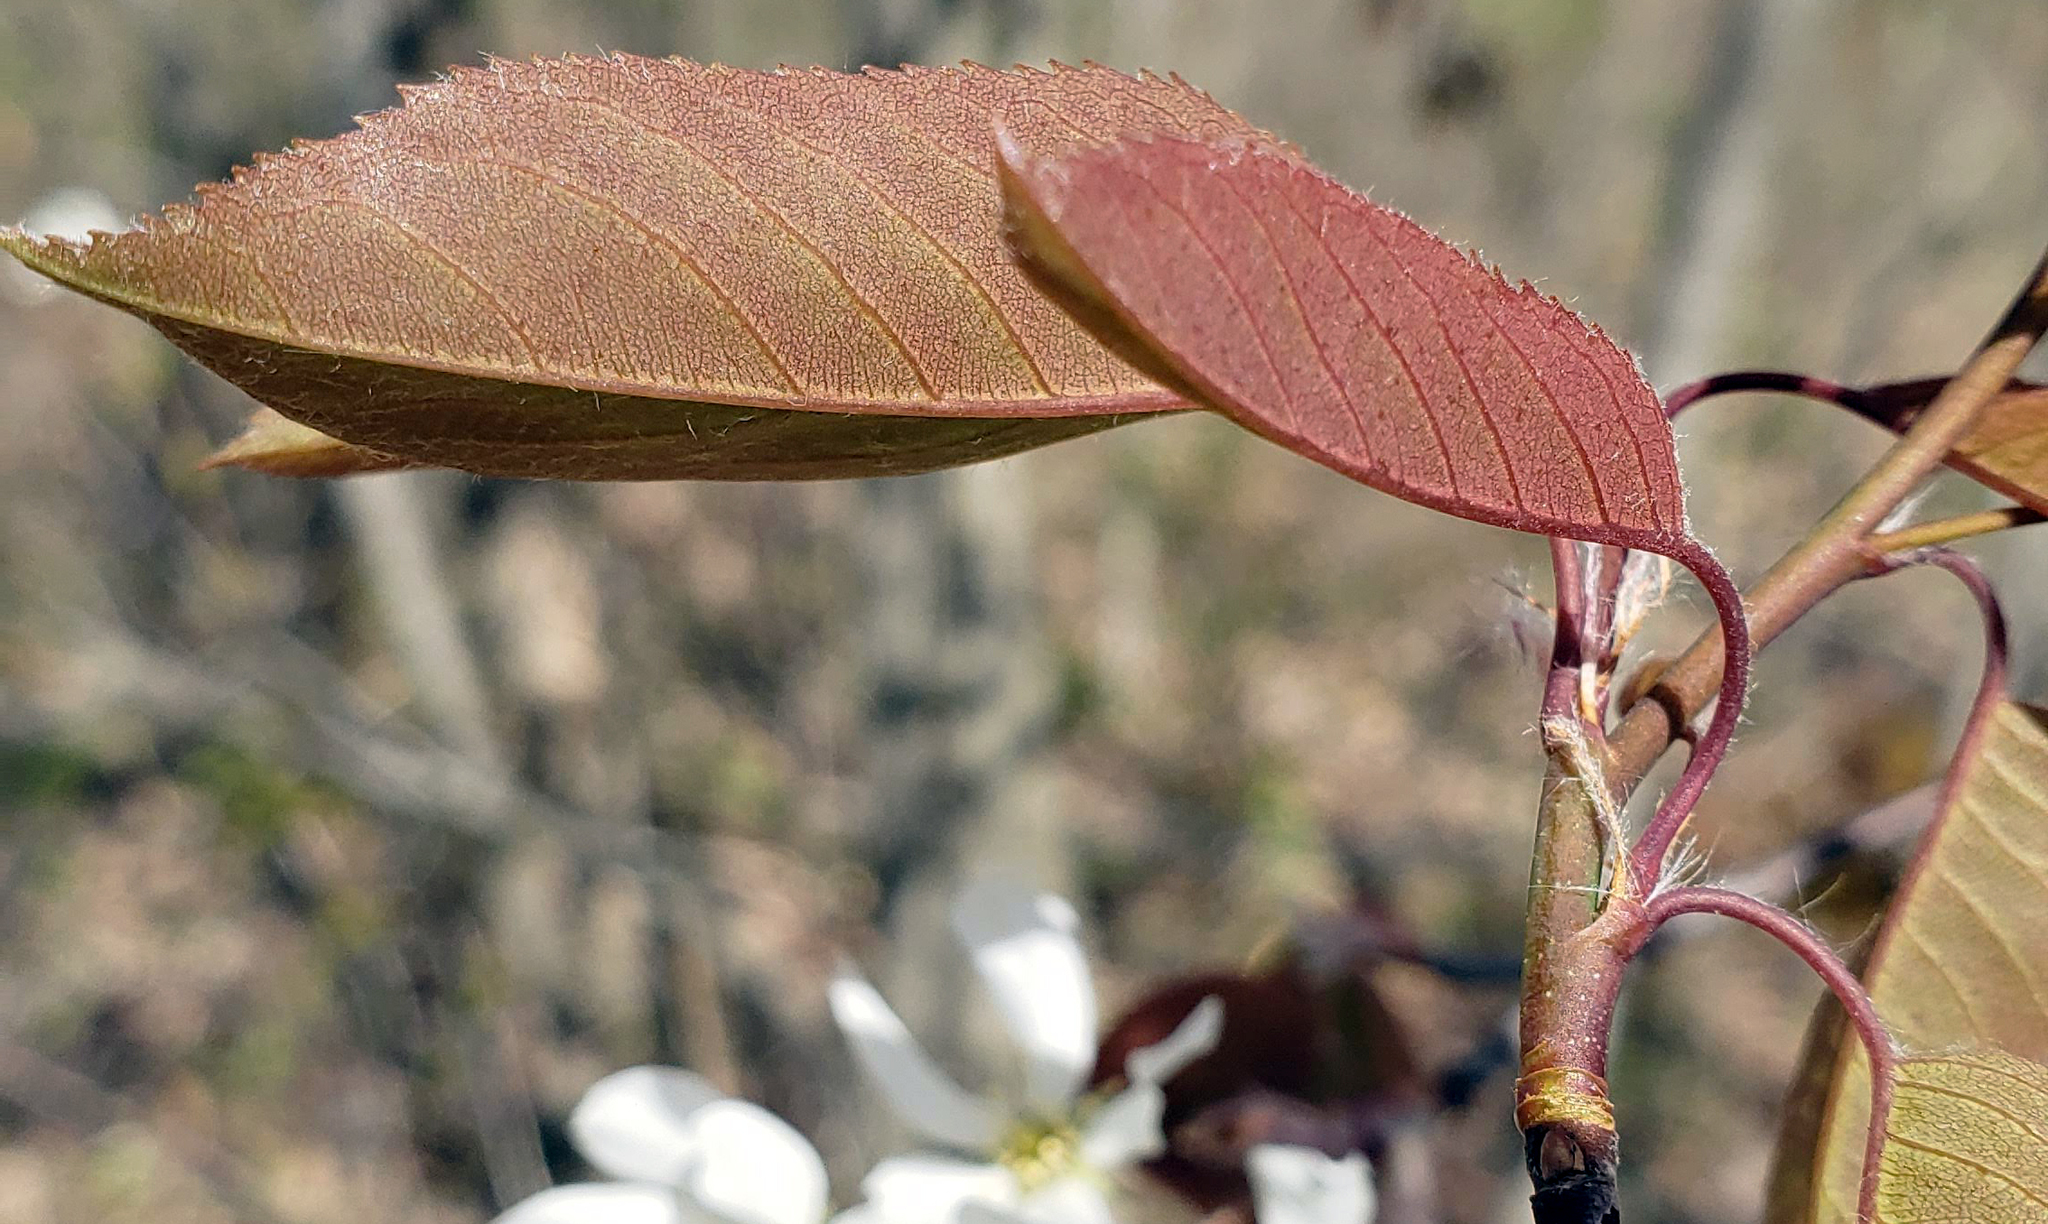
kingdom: Plantae
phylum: Tracheophyta
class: Magnoliopsida
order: Rosales
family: Rosaceae
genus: Amelanchier
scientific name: Amelanchier arborea
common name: Downy serviceberry
